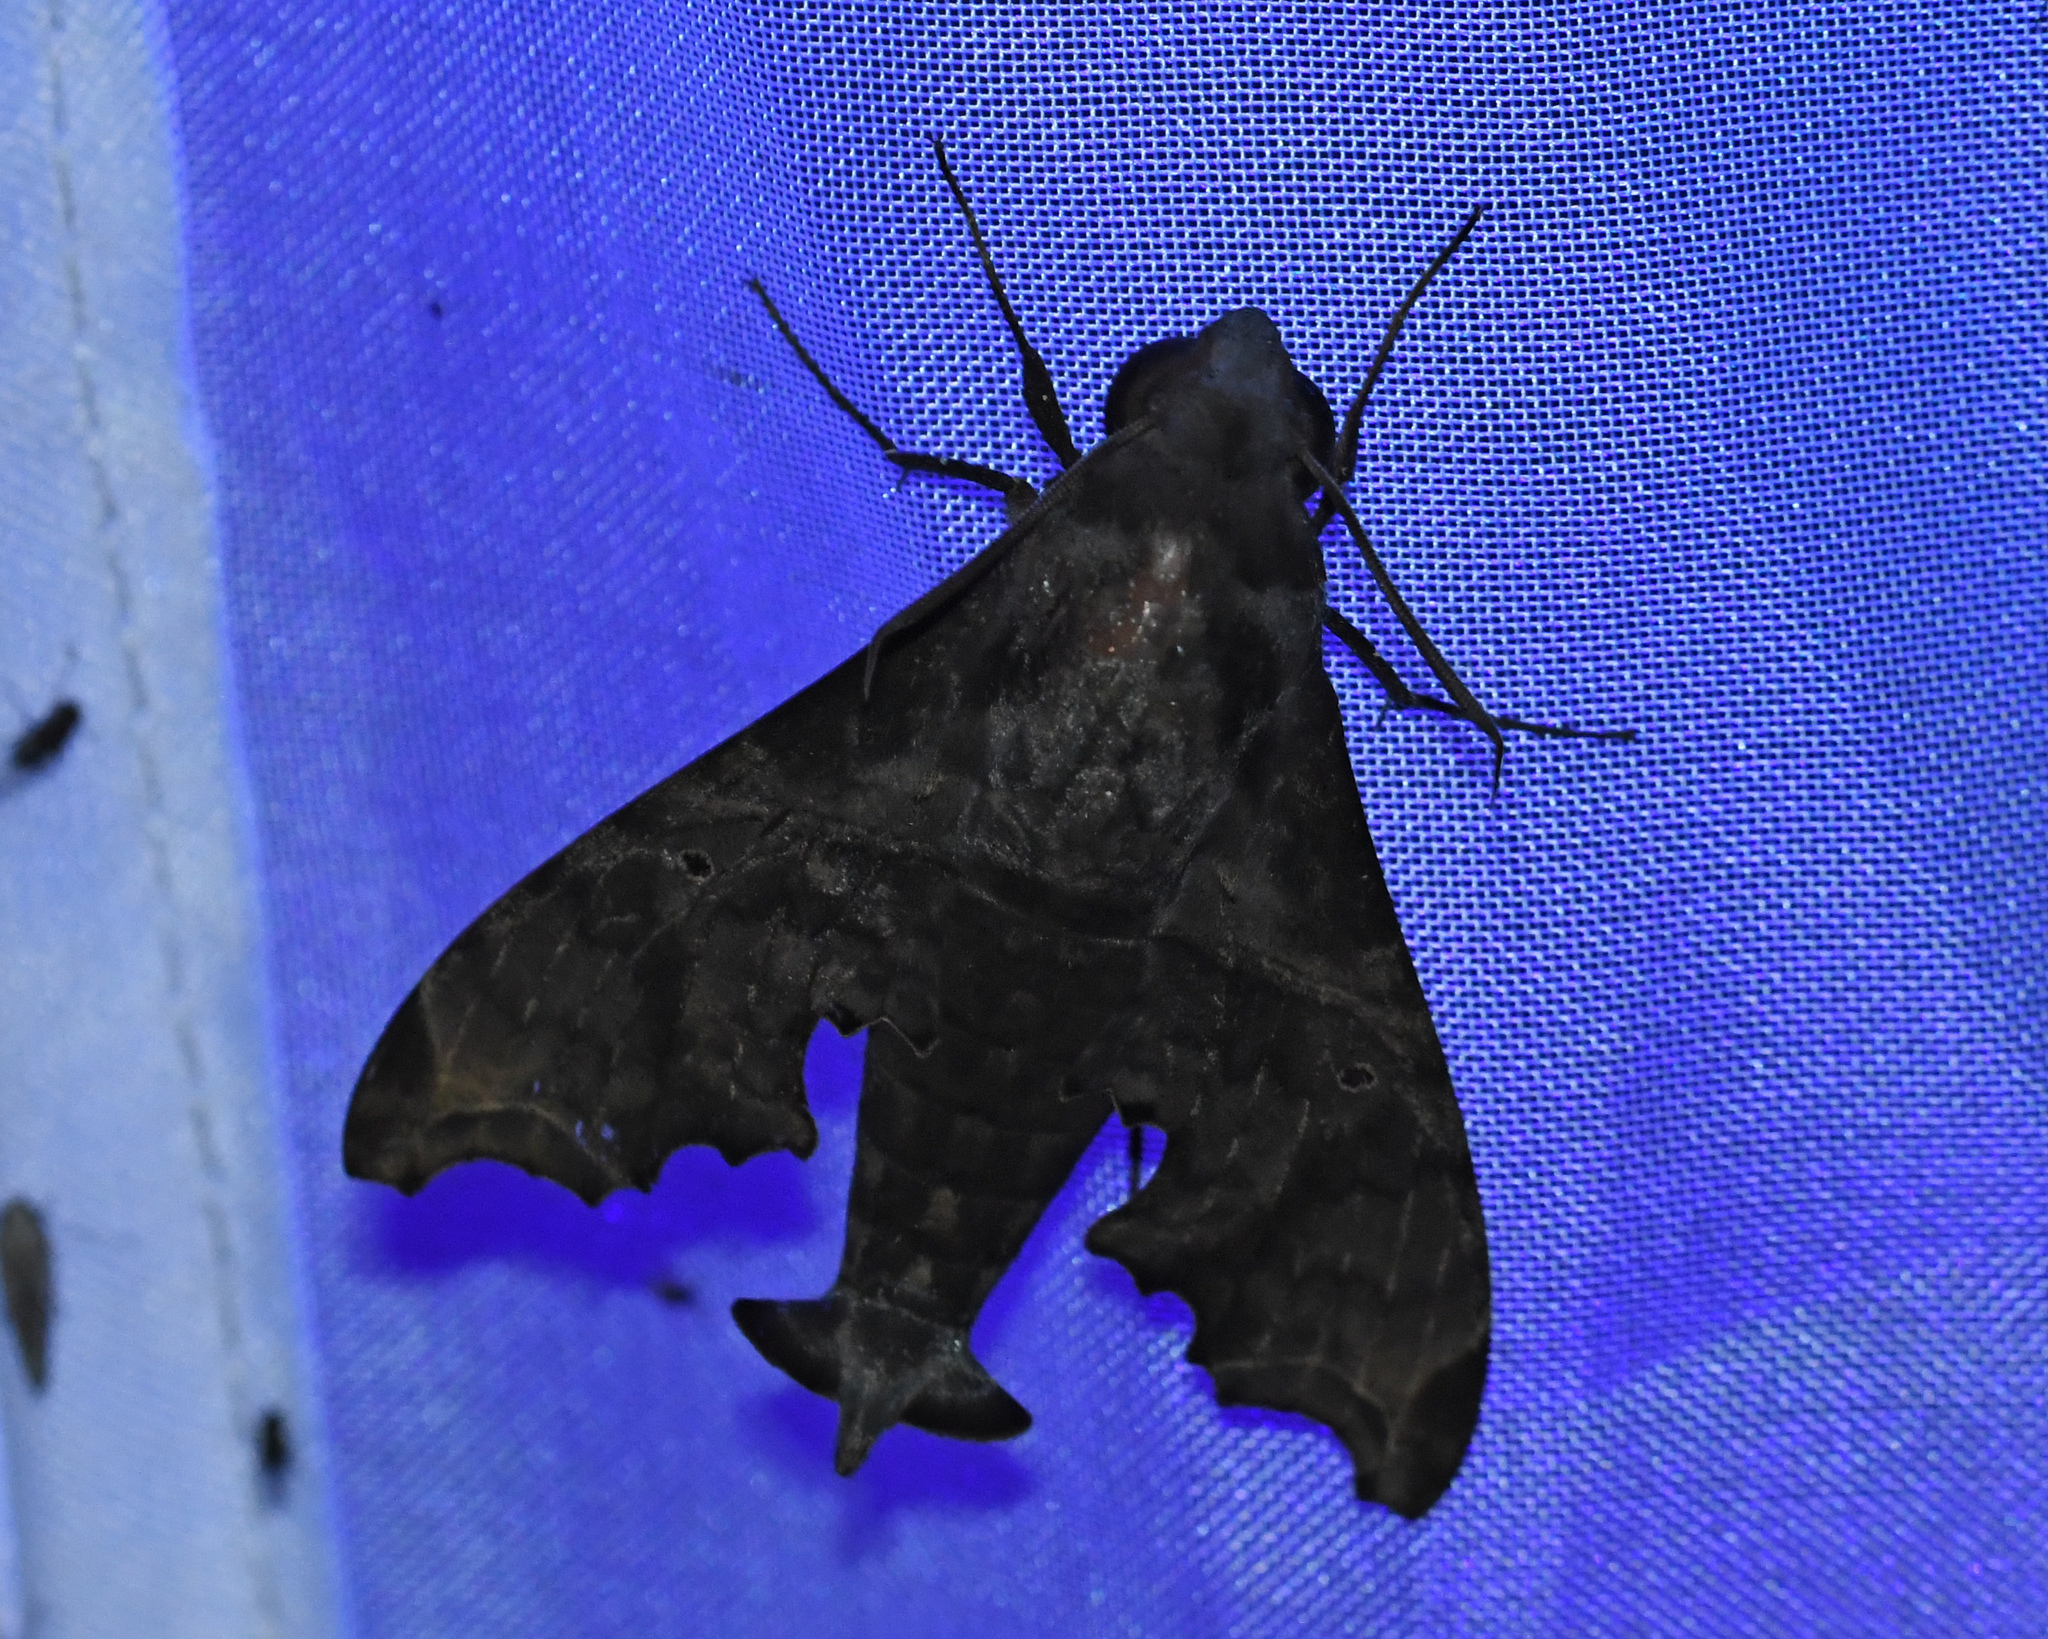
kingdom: Animalia
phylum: Arthropoda
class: Insecta
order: Lepidoptera
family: Sphingidae
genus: Enyo
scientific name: Enyo lugubris
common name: Mournful sphinx
